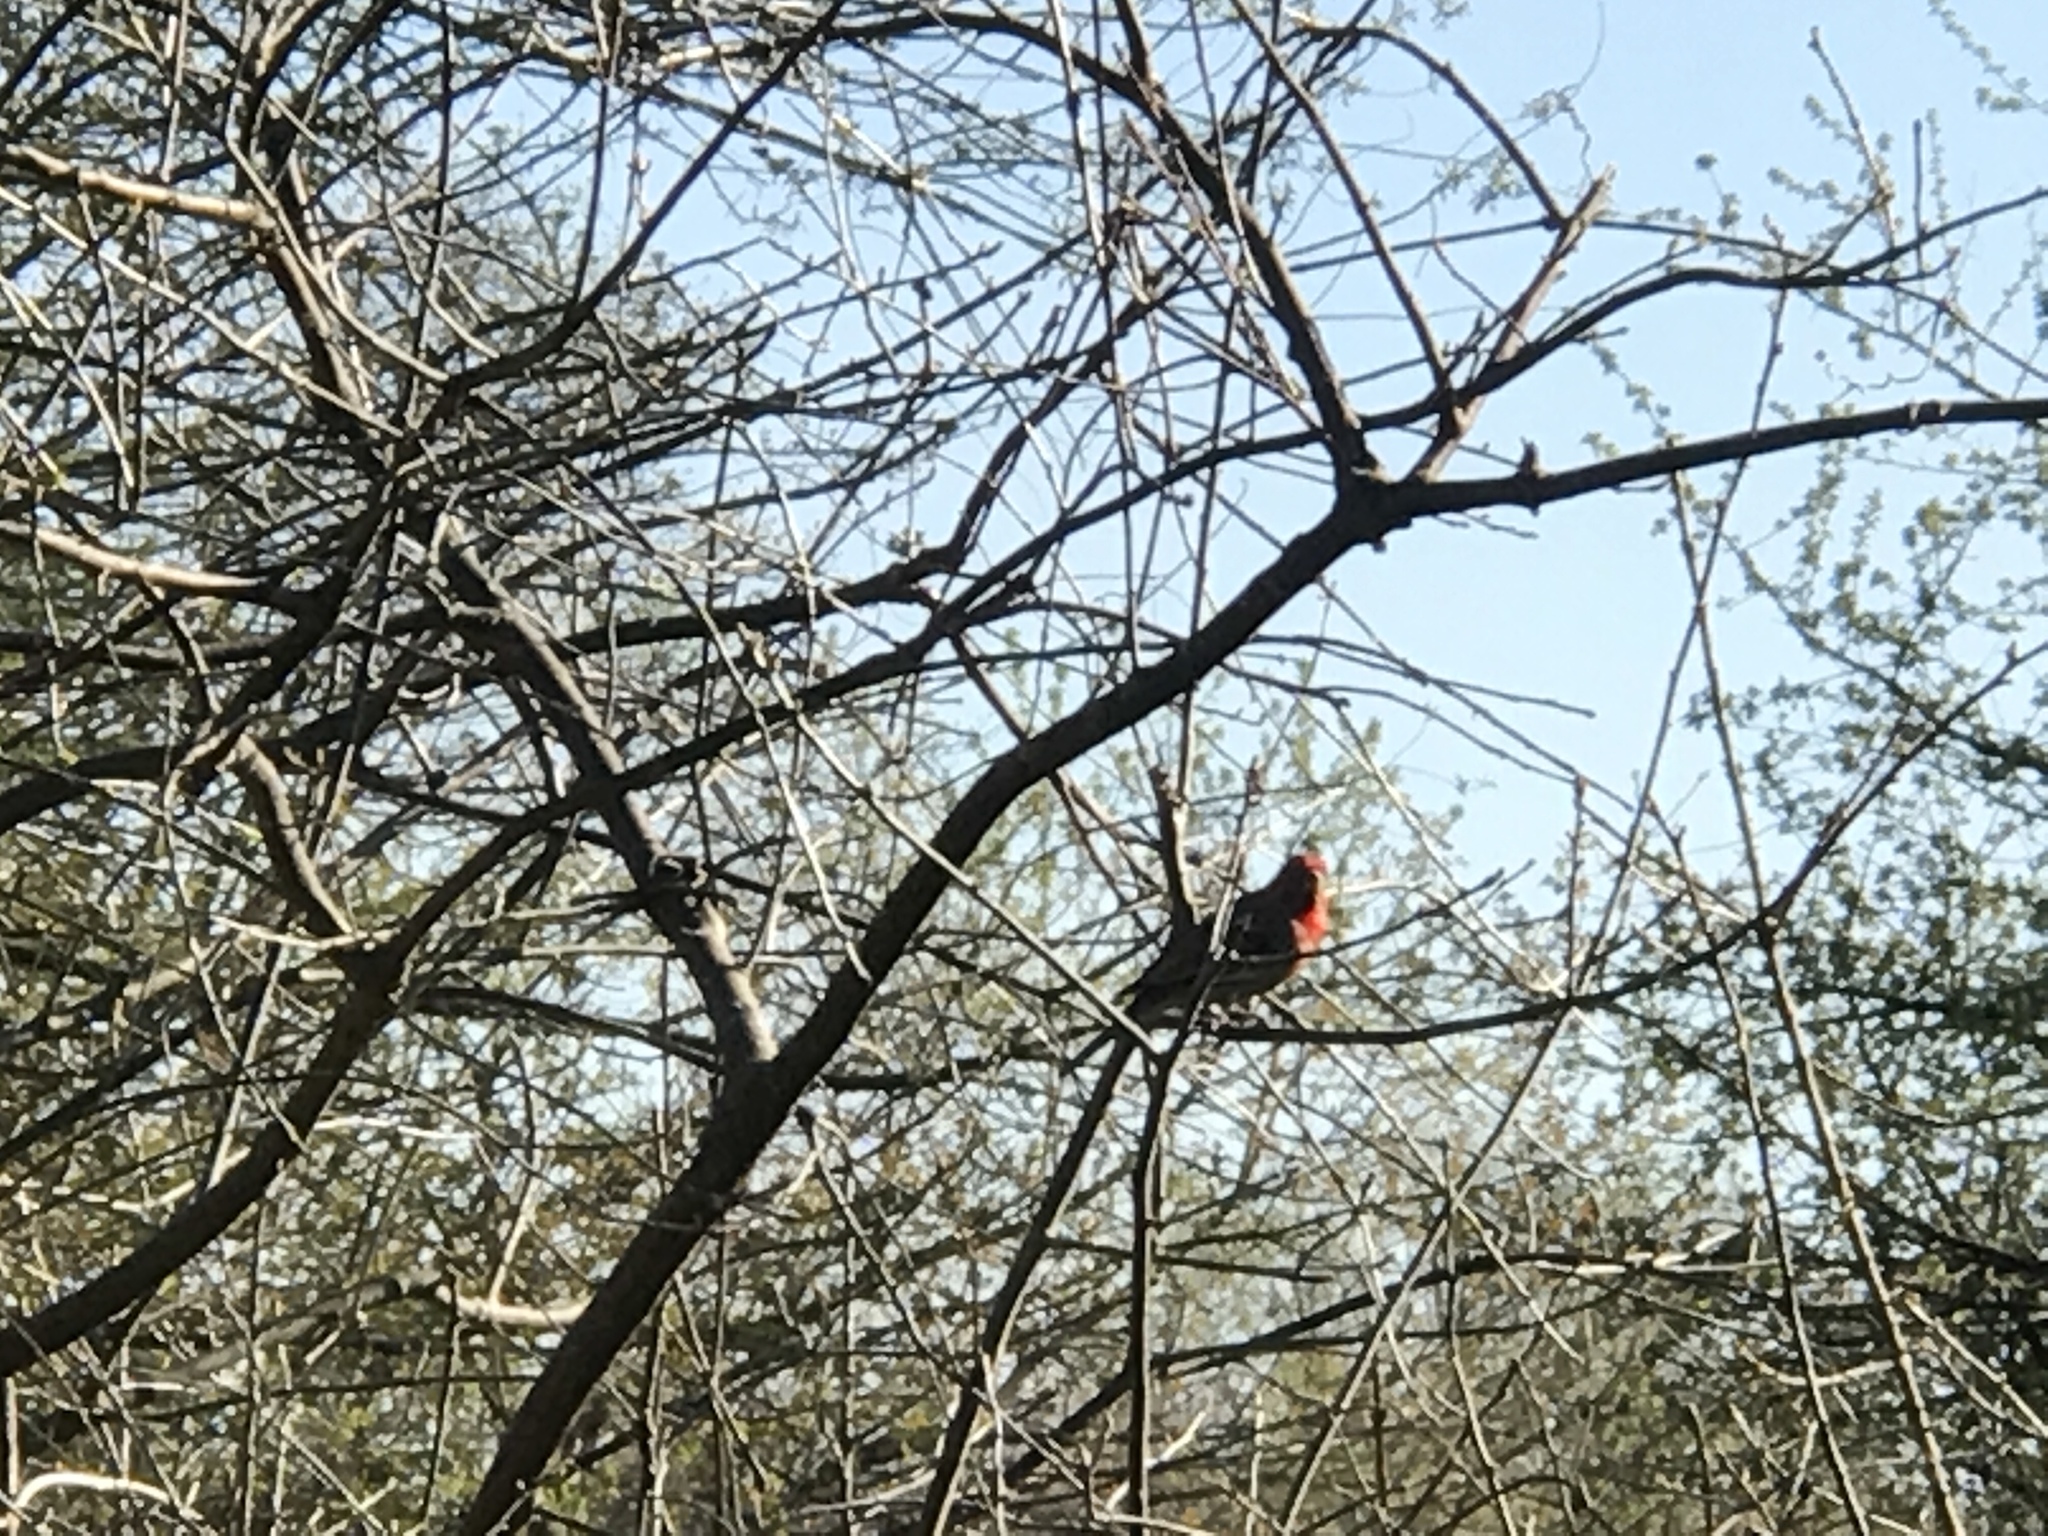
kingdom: Animalia
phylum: Chordata
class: Aves
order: Passeriformes
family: Fringillidae
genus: Haemorhous
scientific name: Haemorhous mexicanus
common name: House finch
